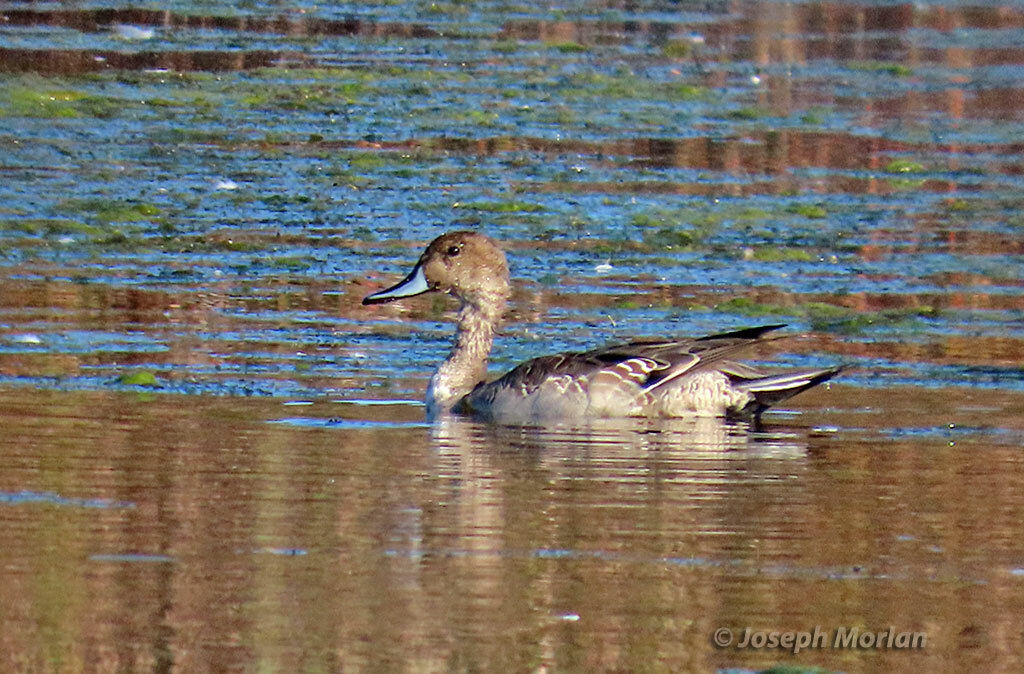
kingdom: Animalia
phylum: Chordata
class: Aves
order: Anseriformes
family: Anatidae
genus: Anas
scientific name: Anas acuta
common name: Northern pintail
